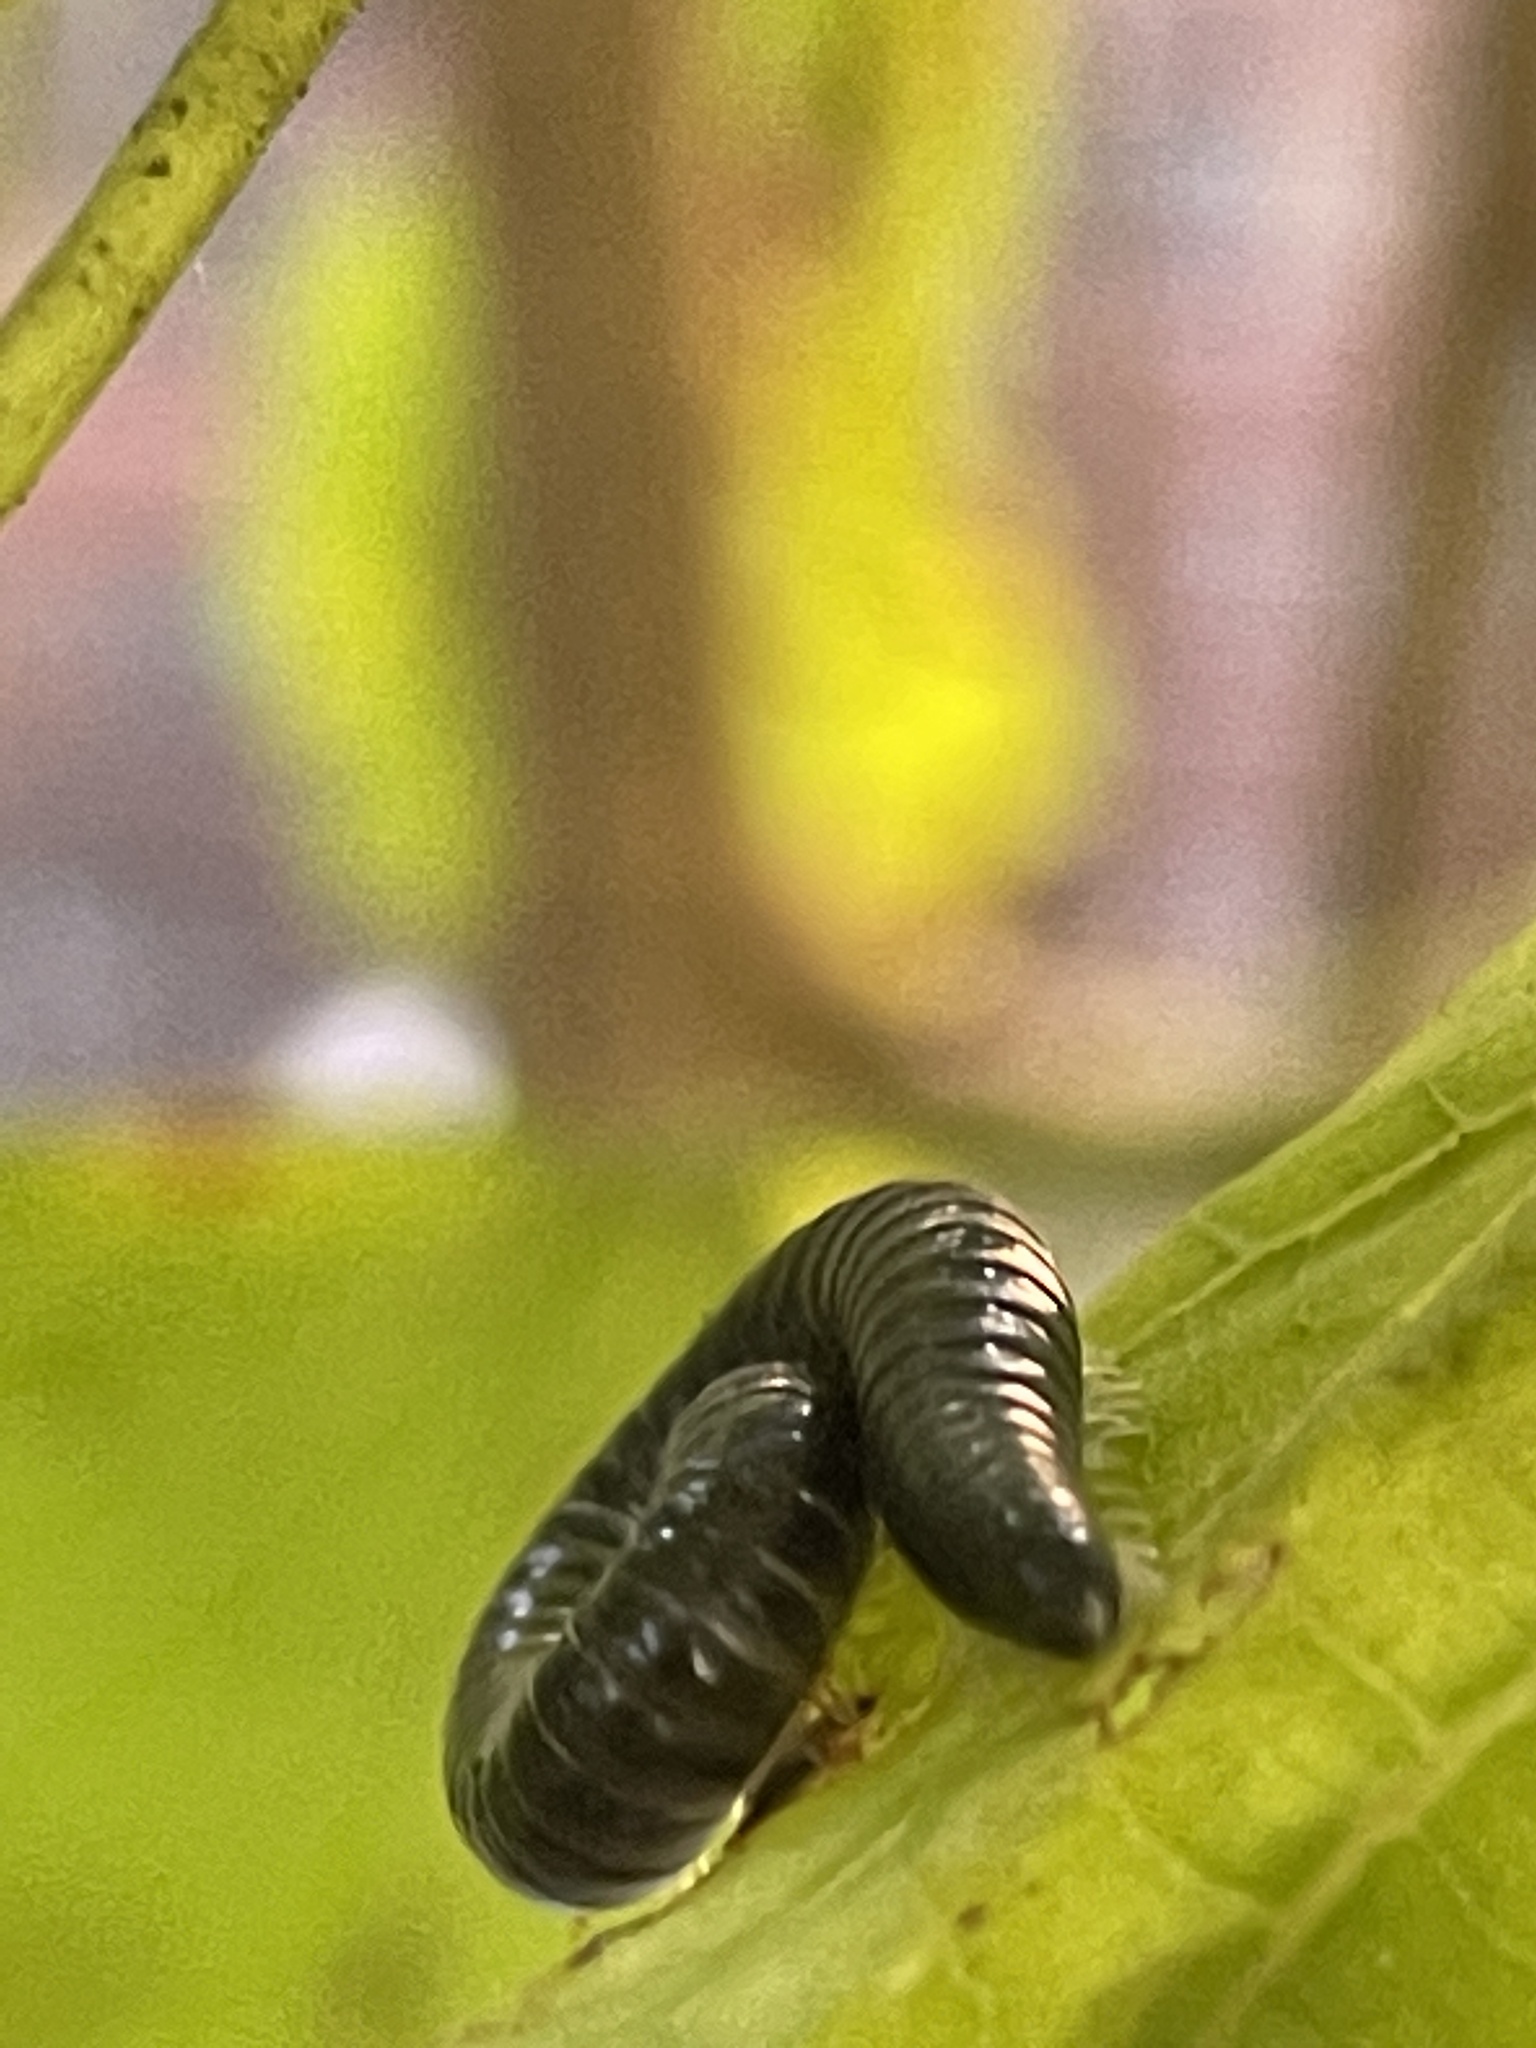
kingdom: Animalia
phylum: Arthropoda
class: Diplopoda
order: Julida
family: Julidae
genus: Ommatoiulus
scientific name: Ommatoiulus moreleti
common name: Portuguese millipede
